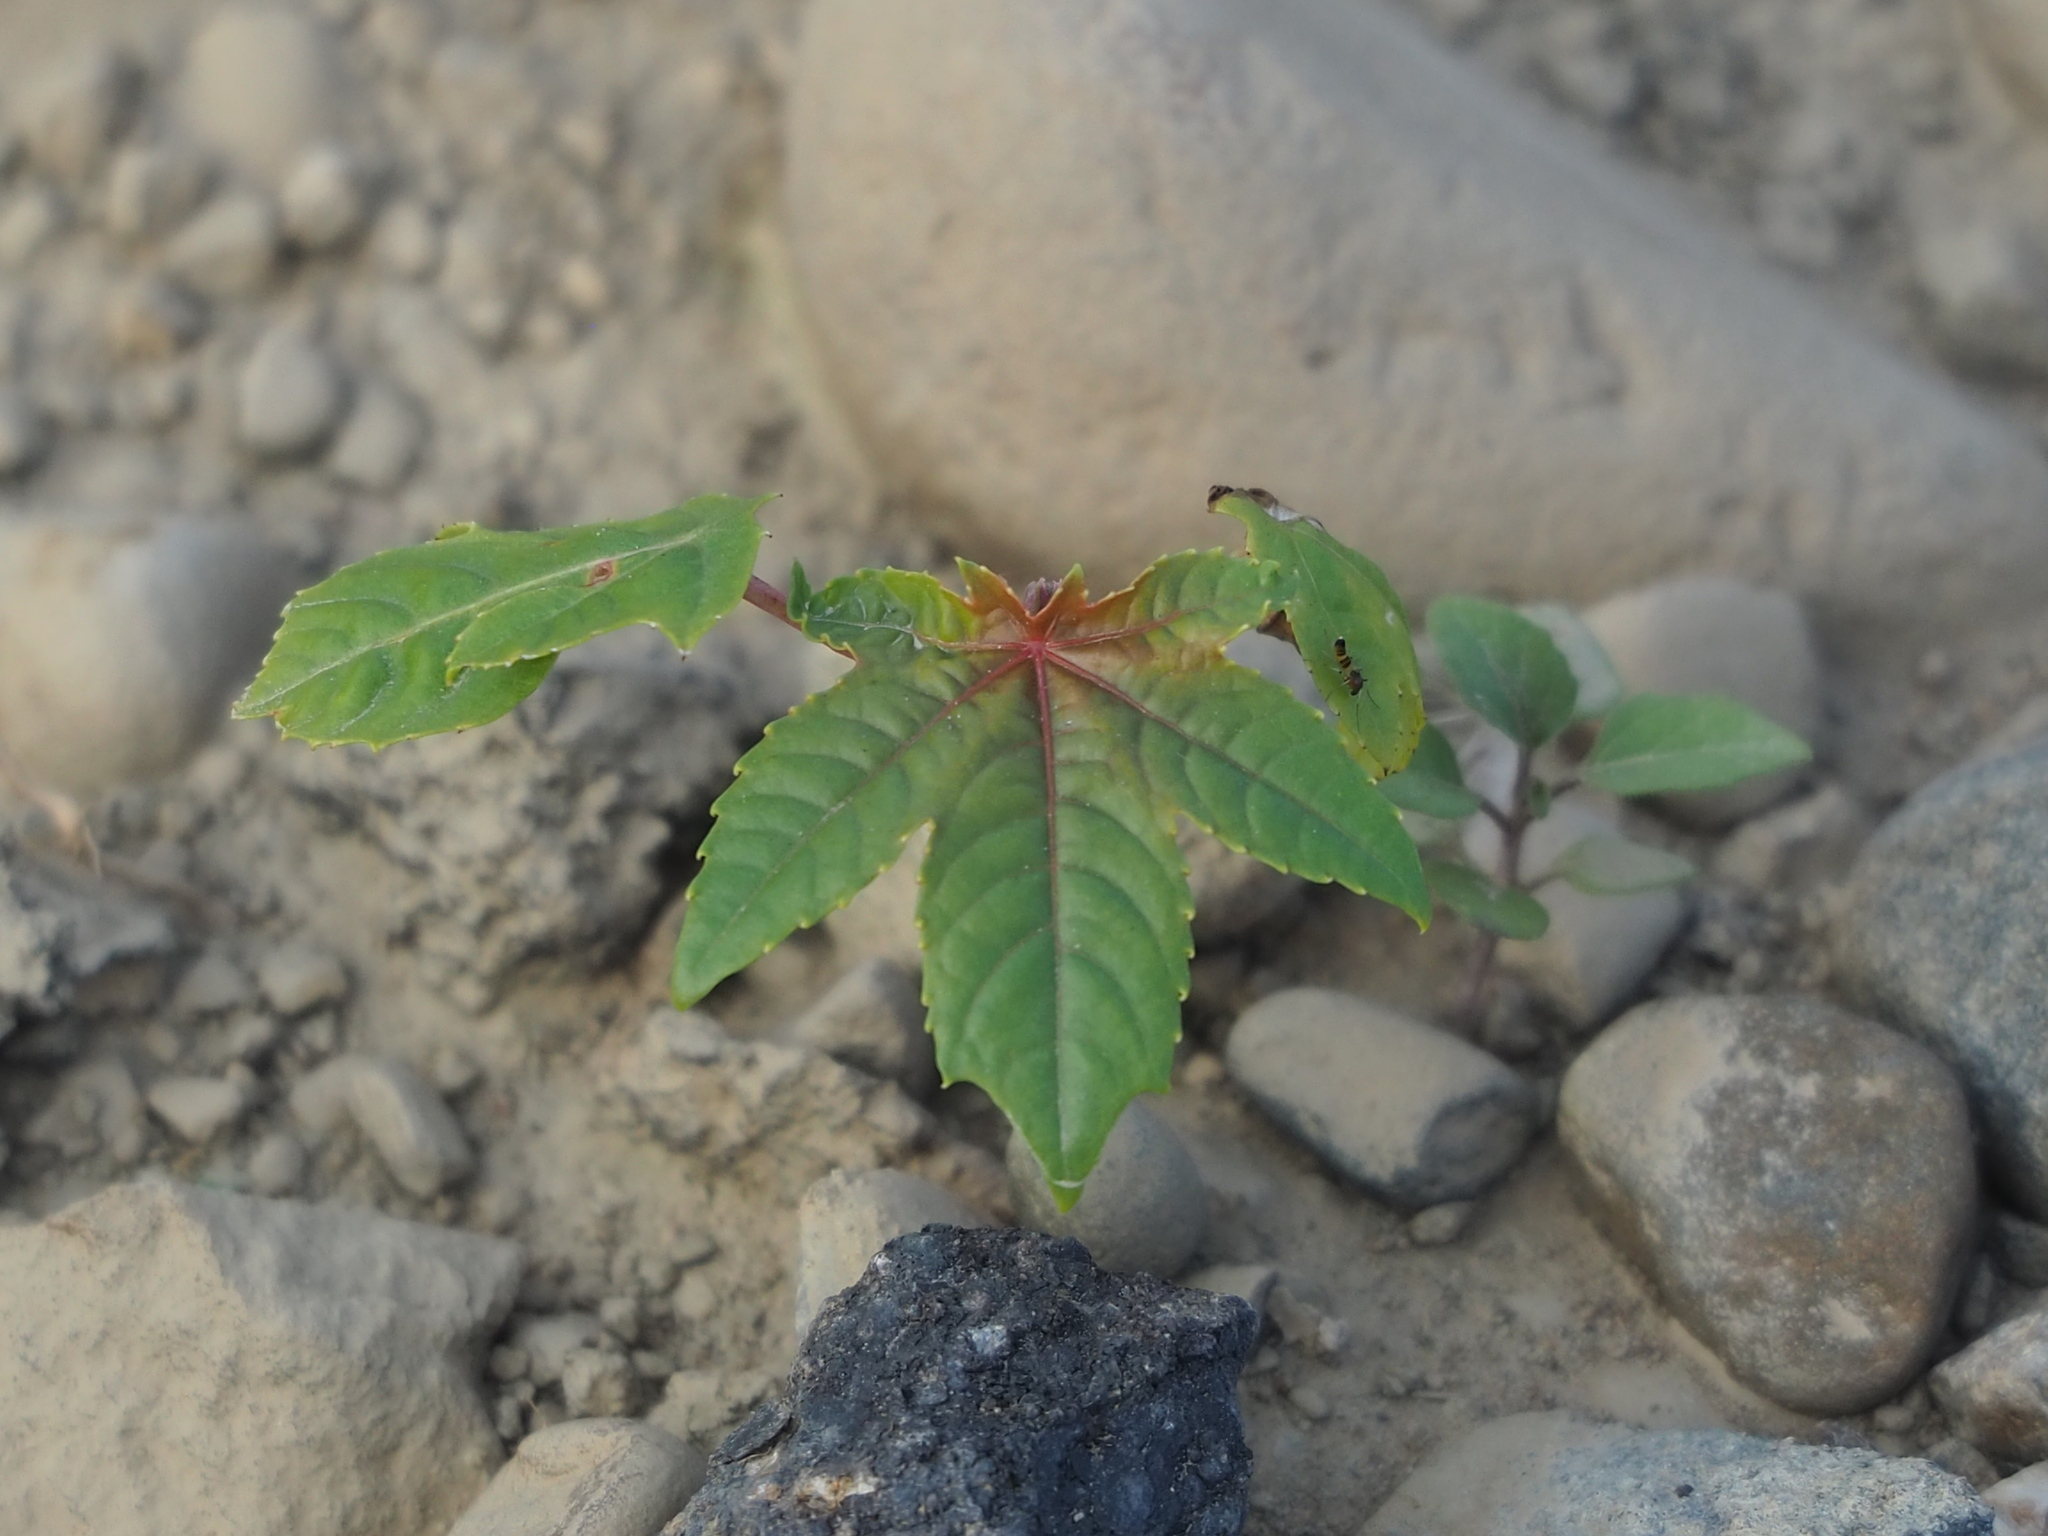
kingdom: Plantae
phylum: Tracheophyta
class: Magnoliopsida
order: Malpighiales
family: Euphorbiaceae
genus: Ricinus
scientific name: Ricinus communis
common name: Castor-oil-plant
